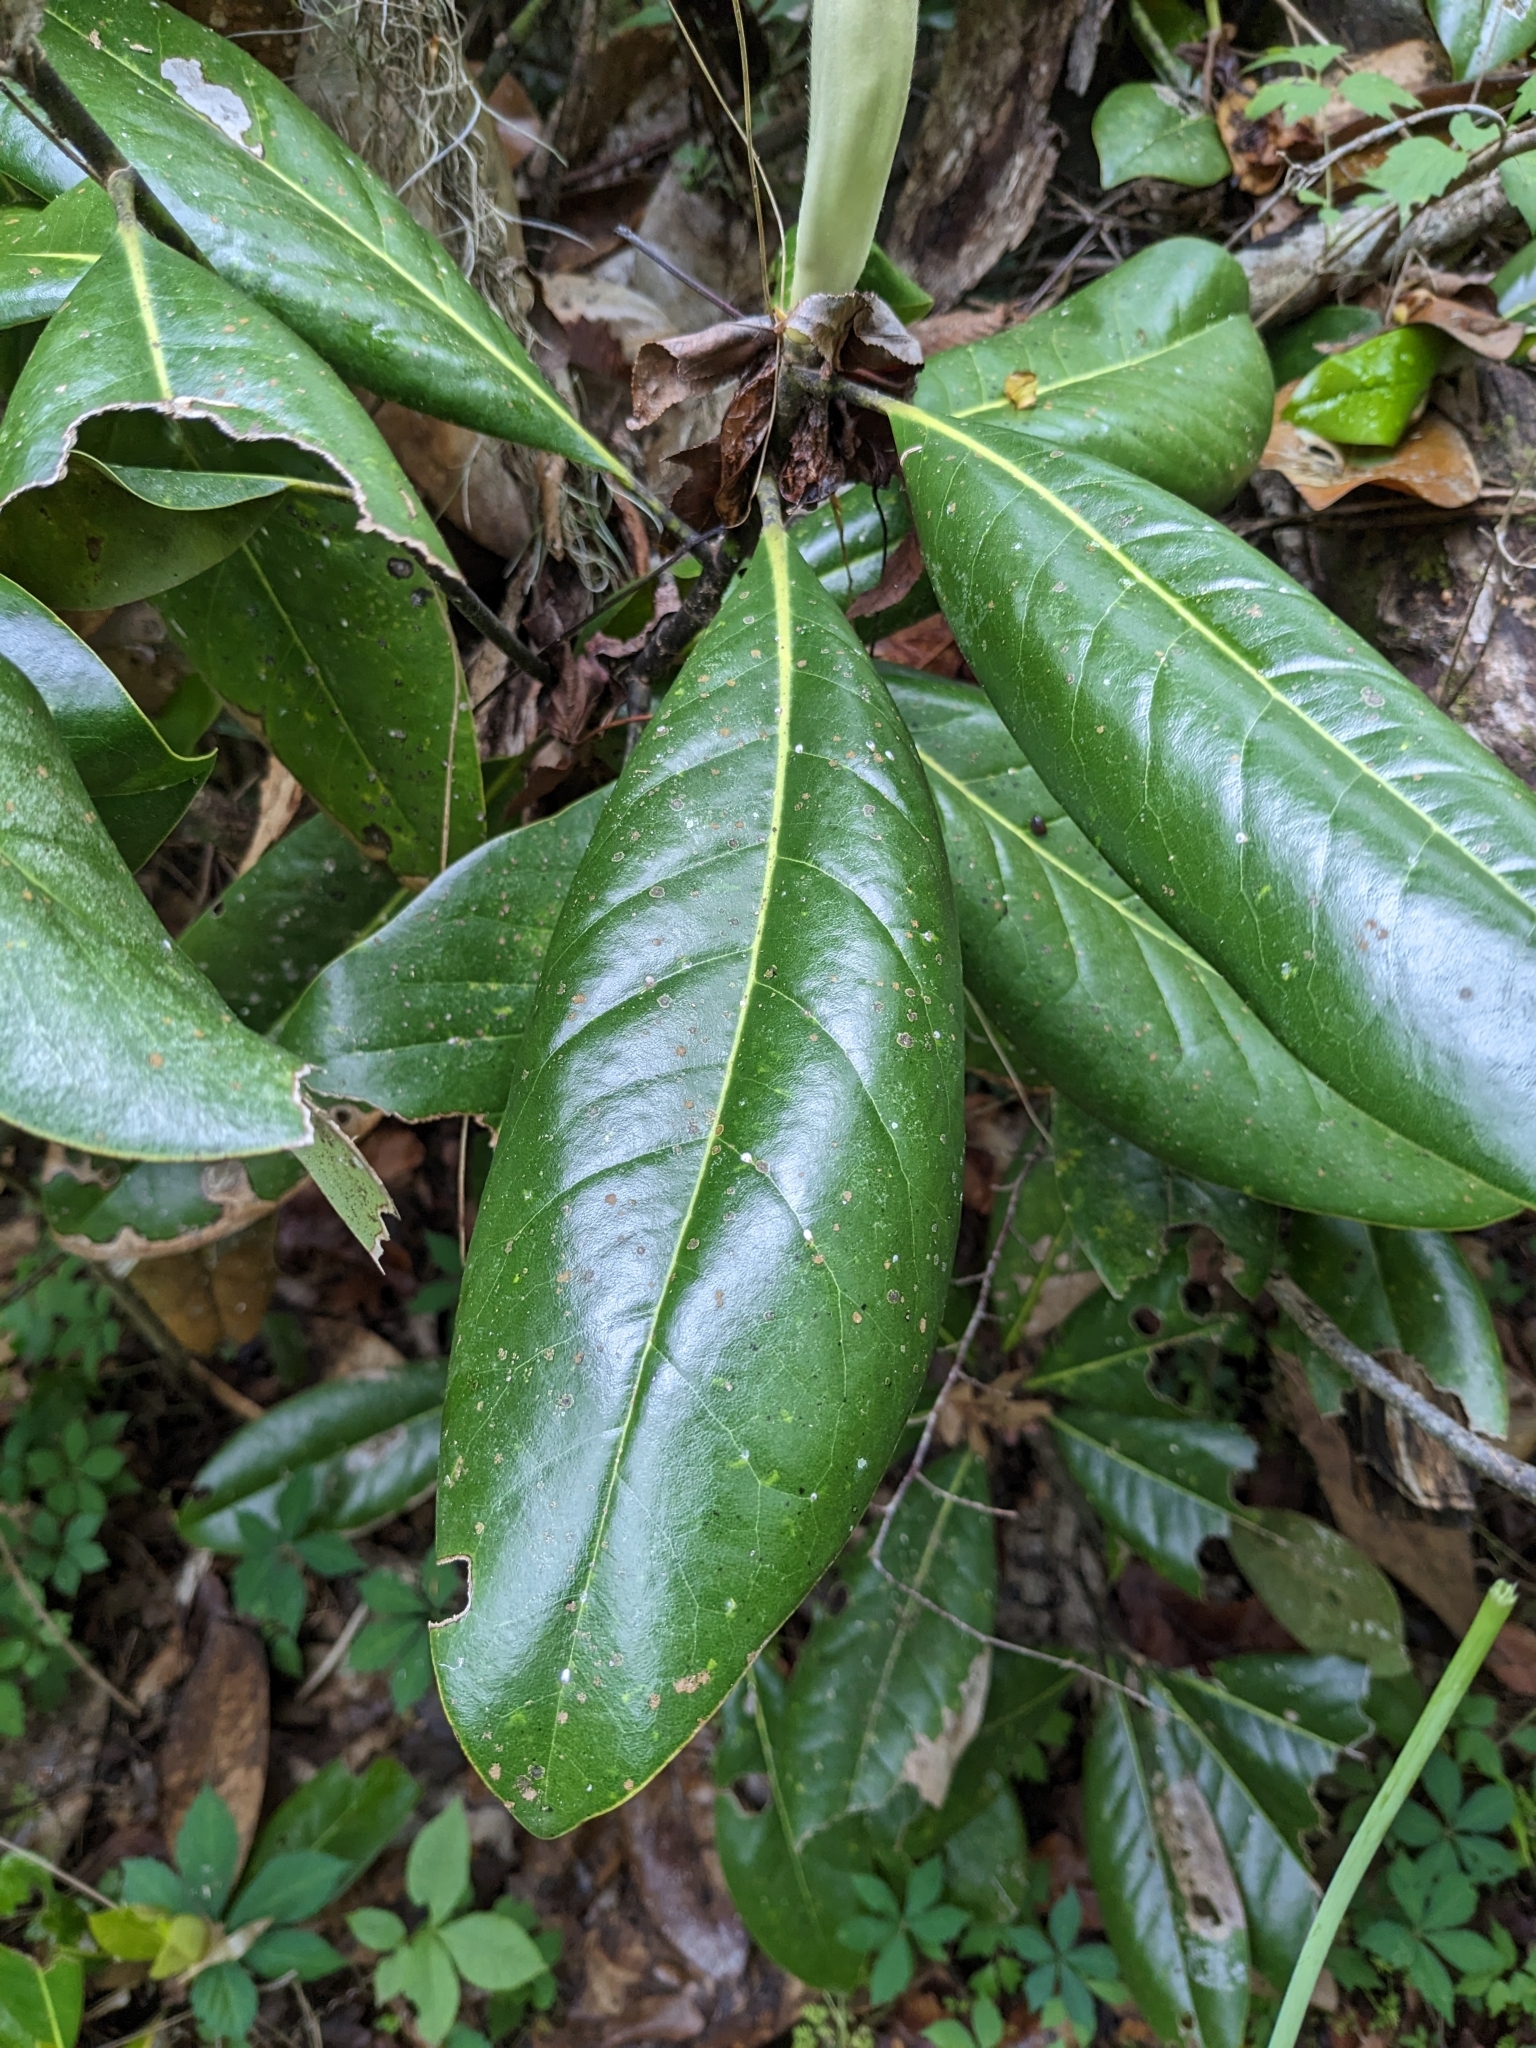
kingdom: Plantae
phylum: Tracheophyta
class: Magnoliopsida
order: Magnoliales
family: Magnoliaceae
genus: Magnolia
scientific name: Magnolia grandiflora
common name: Southern magnolia
